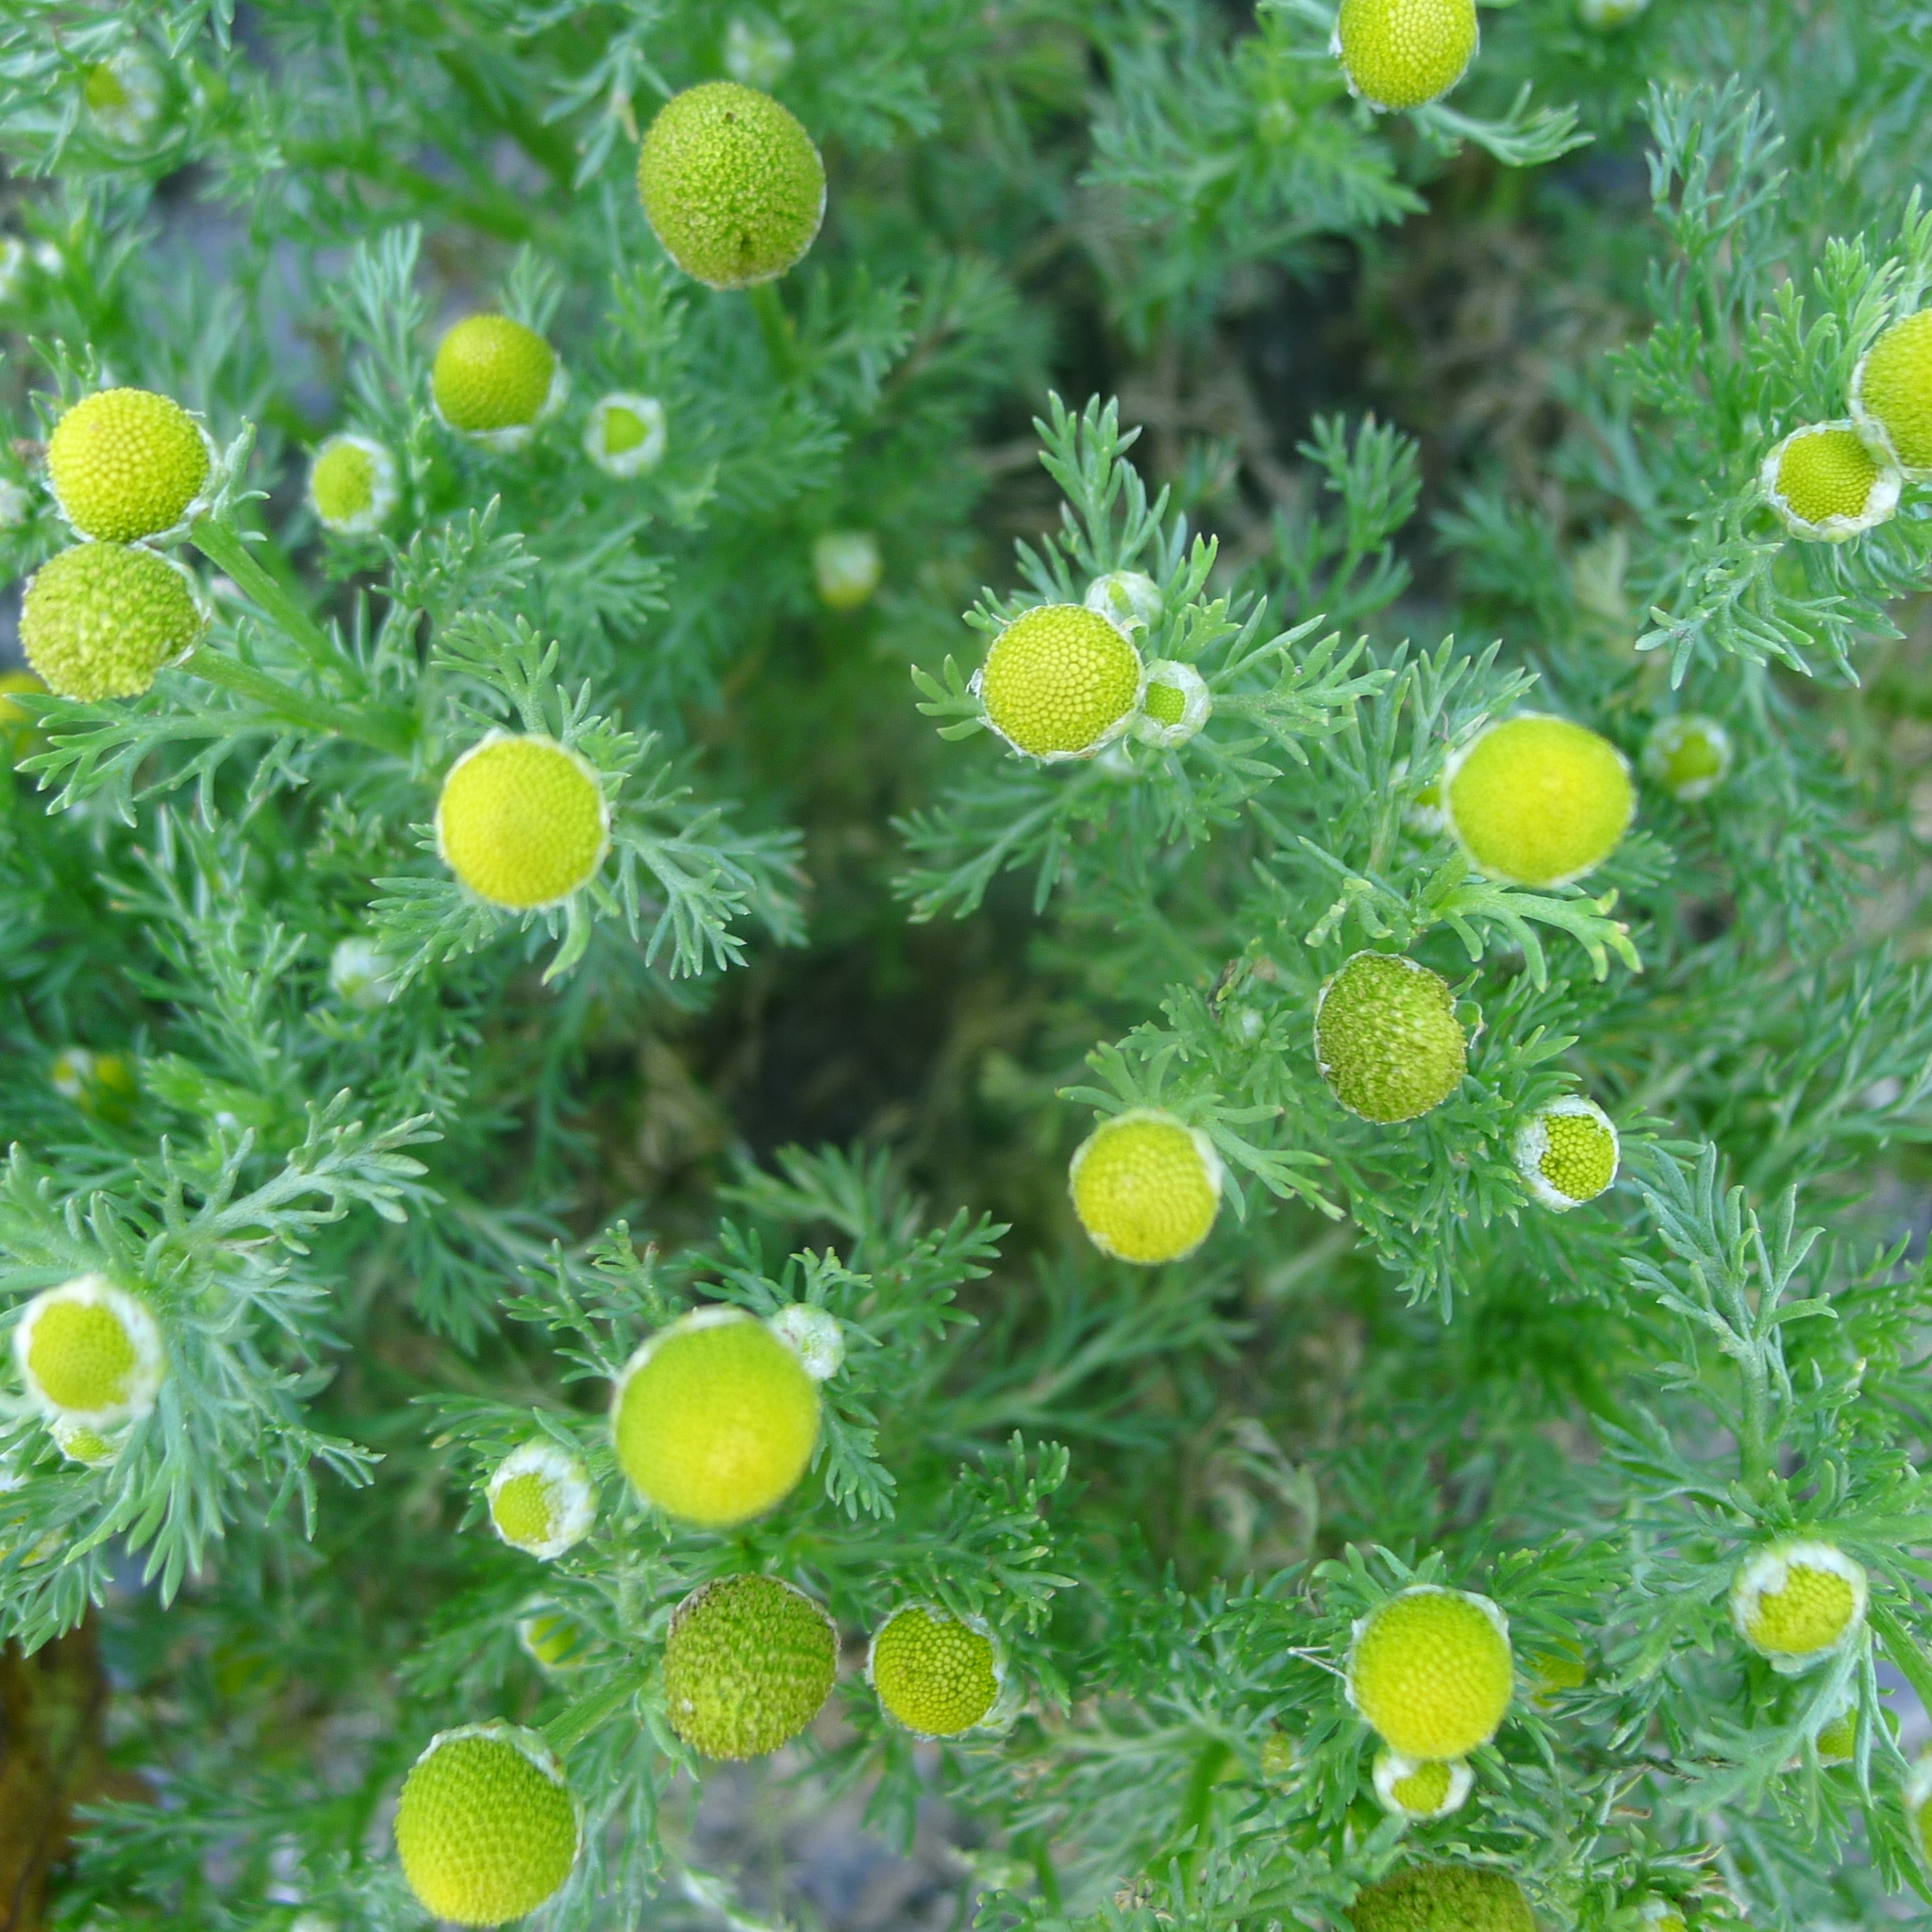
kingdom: Plantae
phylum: Tracheophyta
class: Magnoliopsida
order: Asterales
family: Asteraceae
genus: Matricaria
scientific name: Matricaria discoidea
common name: Disc mayweed
